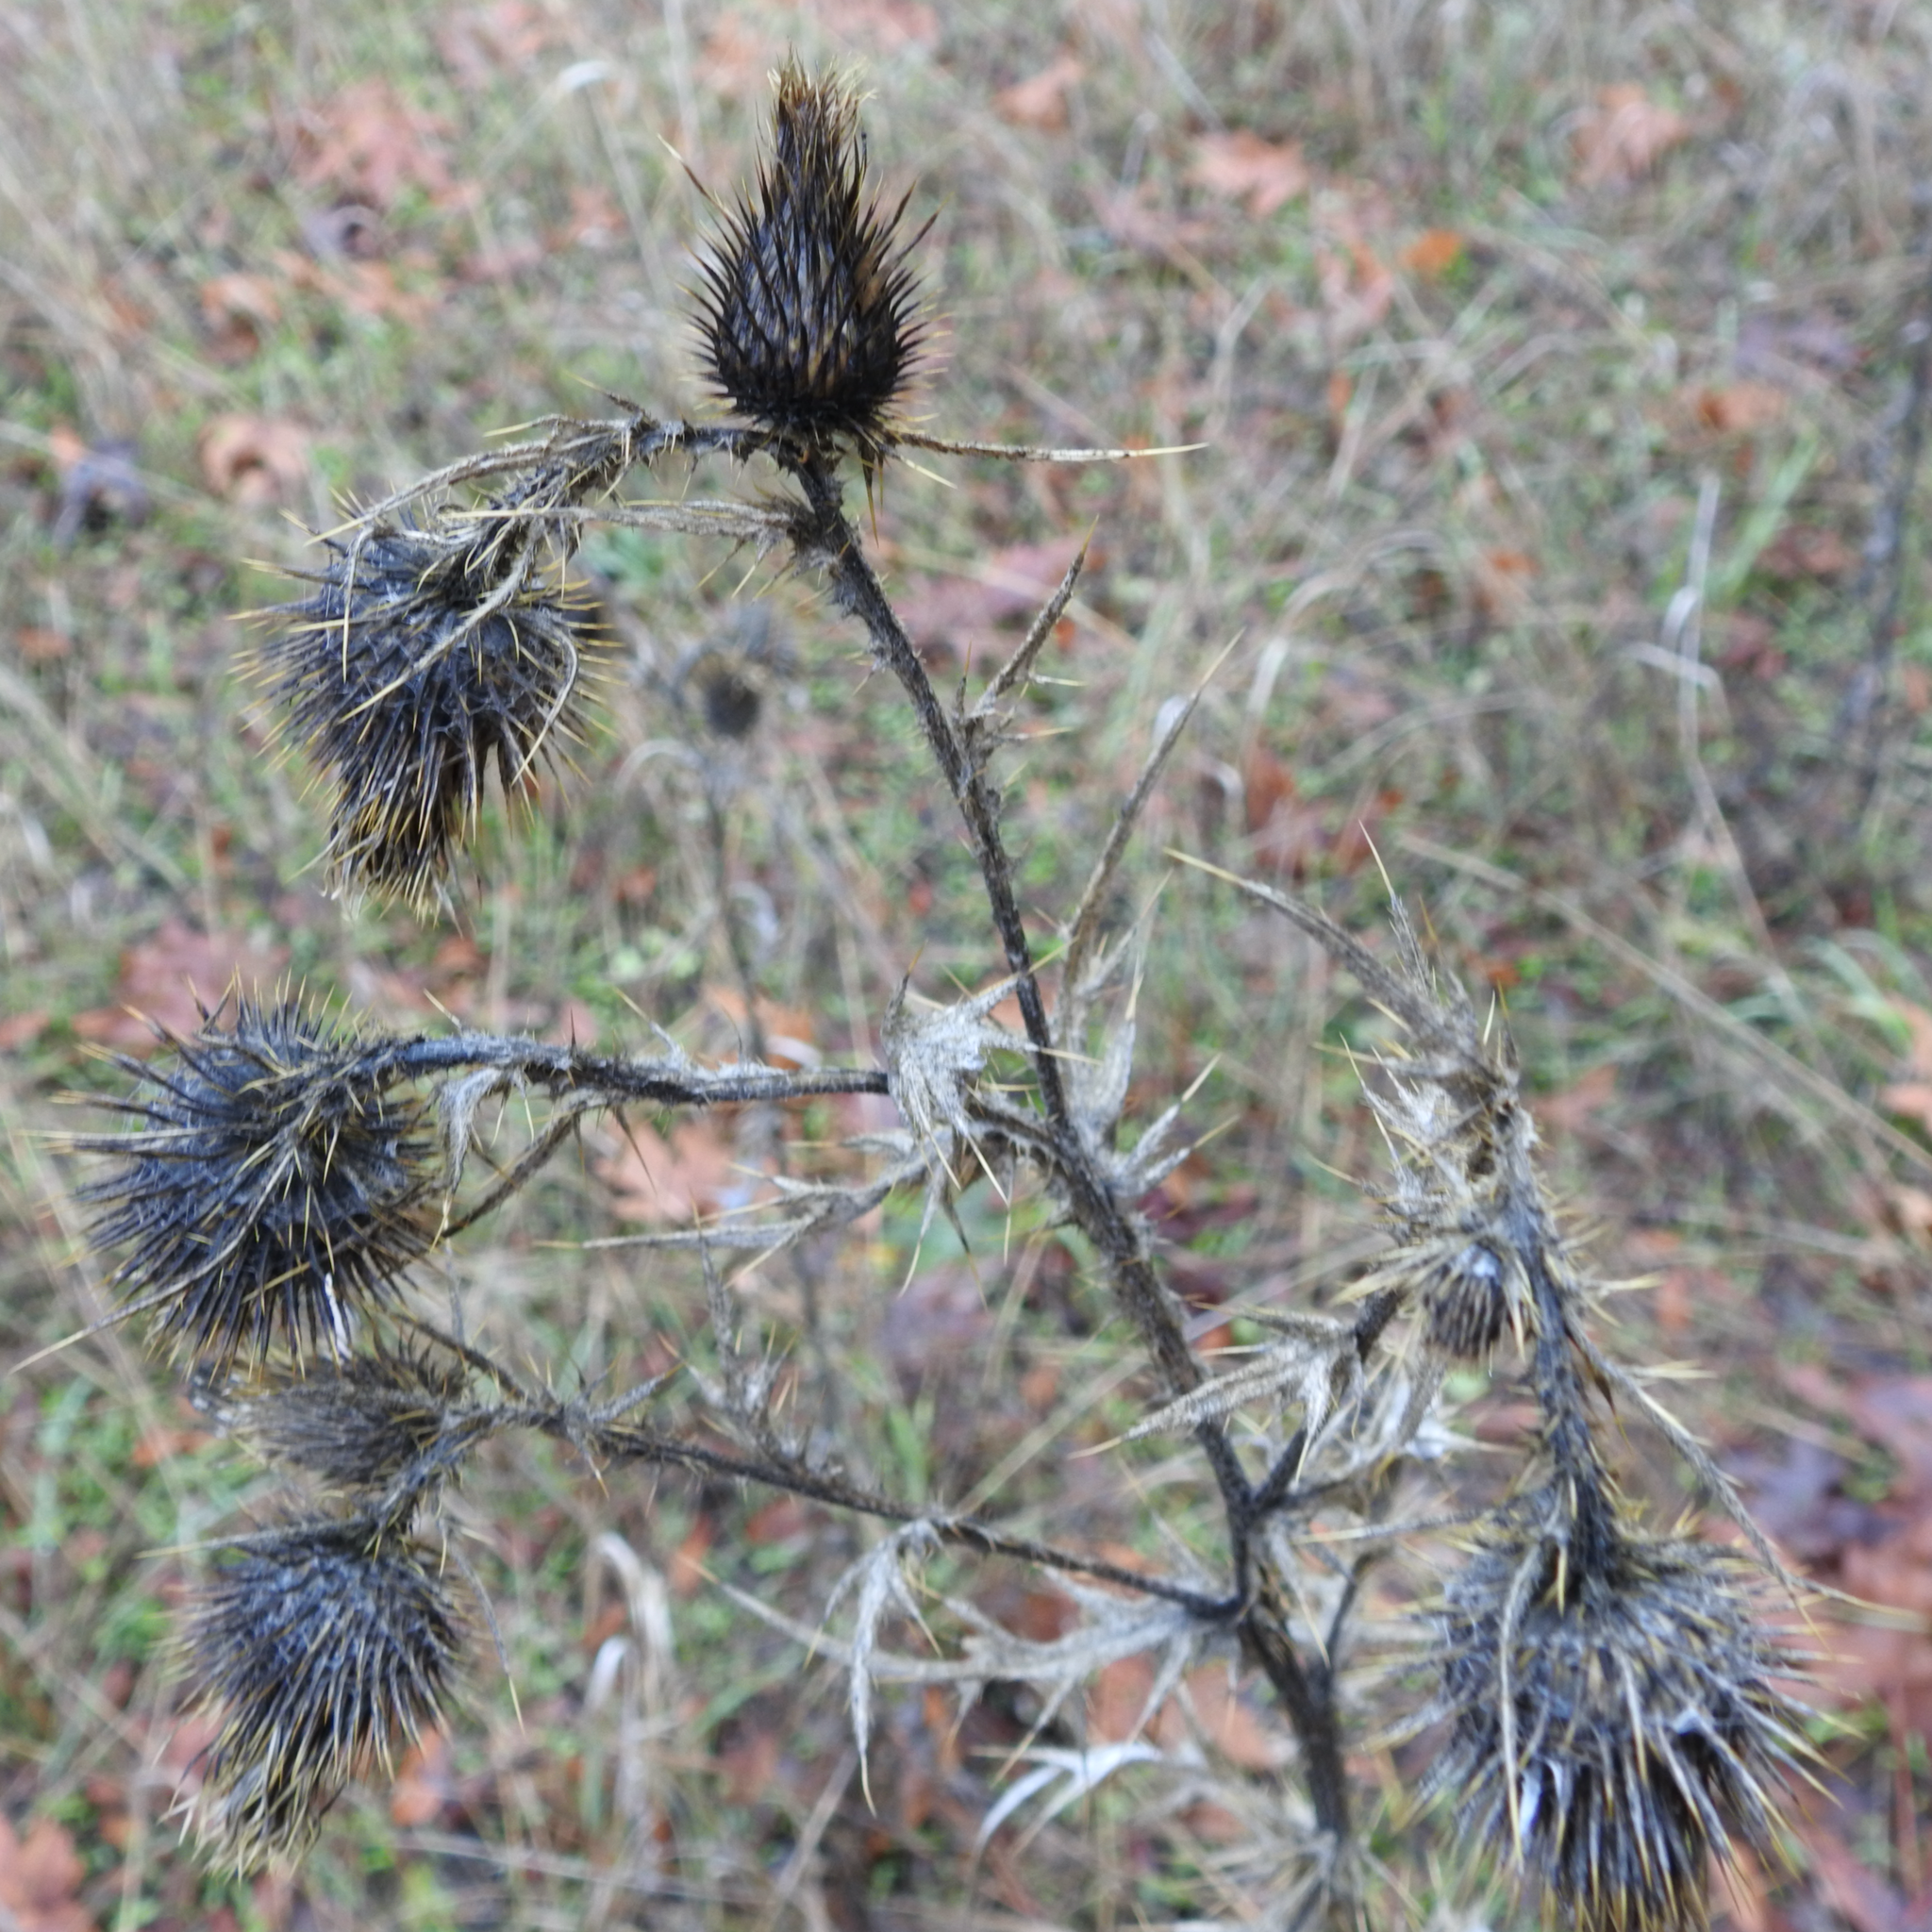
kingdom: Plantae
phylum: Tracheophyta
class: Magnoliopsida
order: Asterales
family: Asteraceae
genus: Cirsium
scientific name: Cirsium vulgare
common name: Bull thistle
